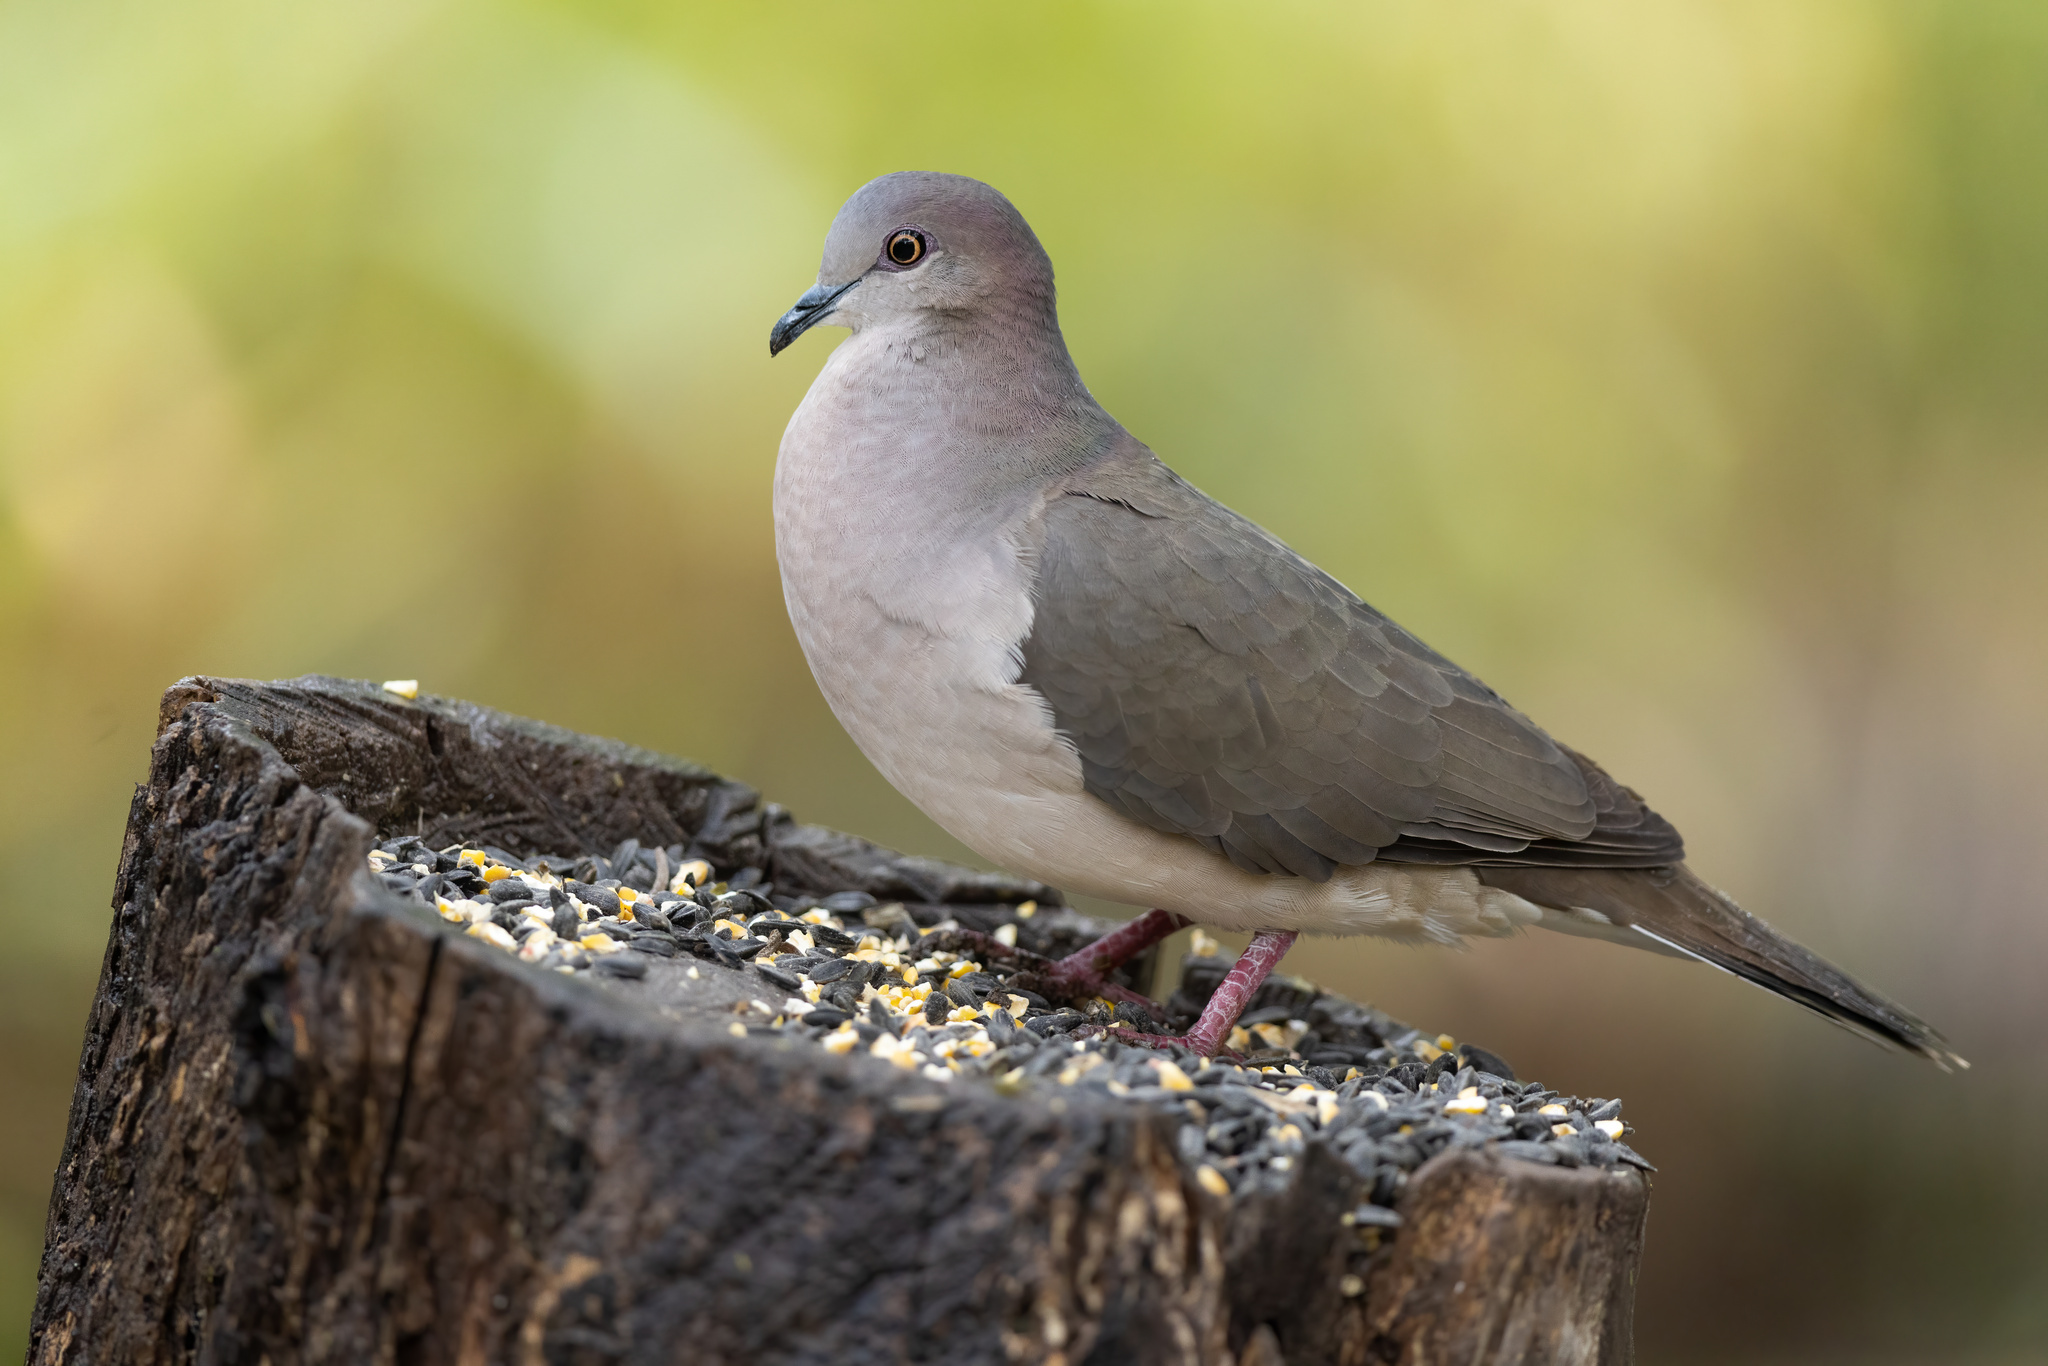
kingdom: Animalia
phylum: Chordata
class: Aves
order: Columbiformes
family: Columbidae
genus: Leptotila
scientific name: Leptotila verreauxi
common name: White-tipped dove
